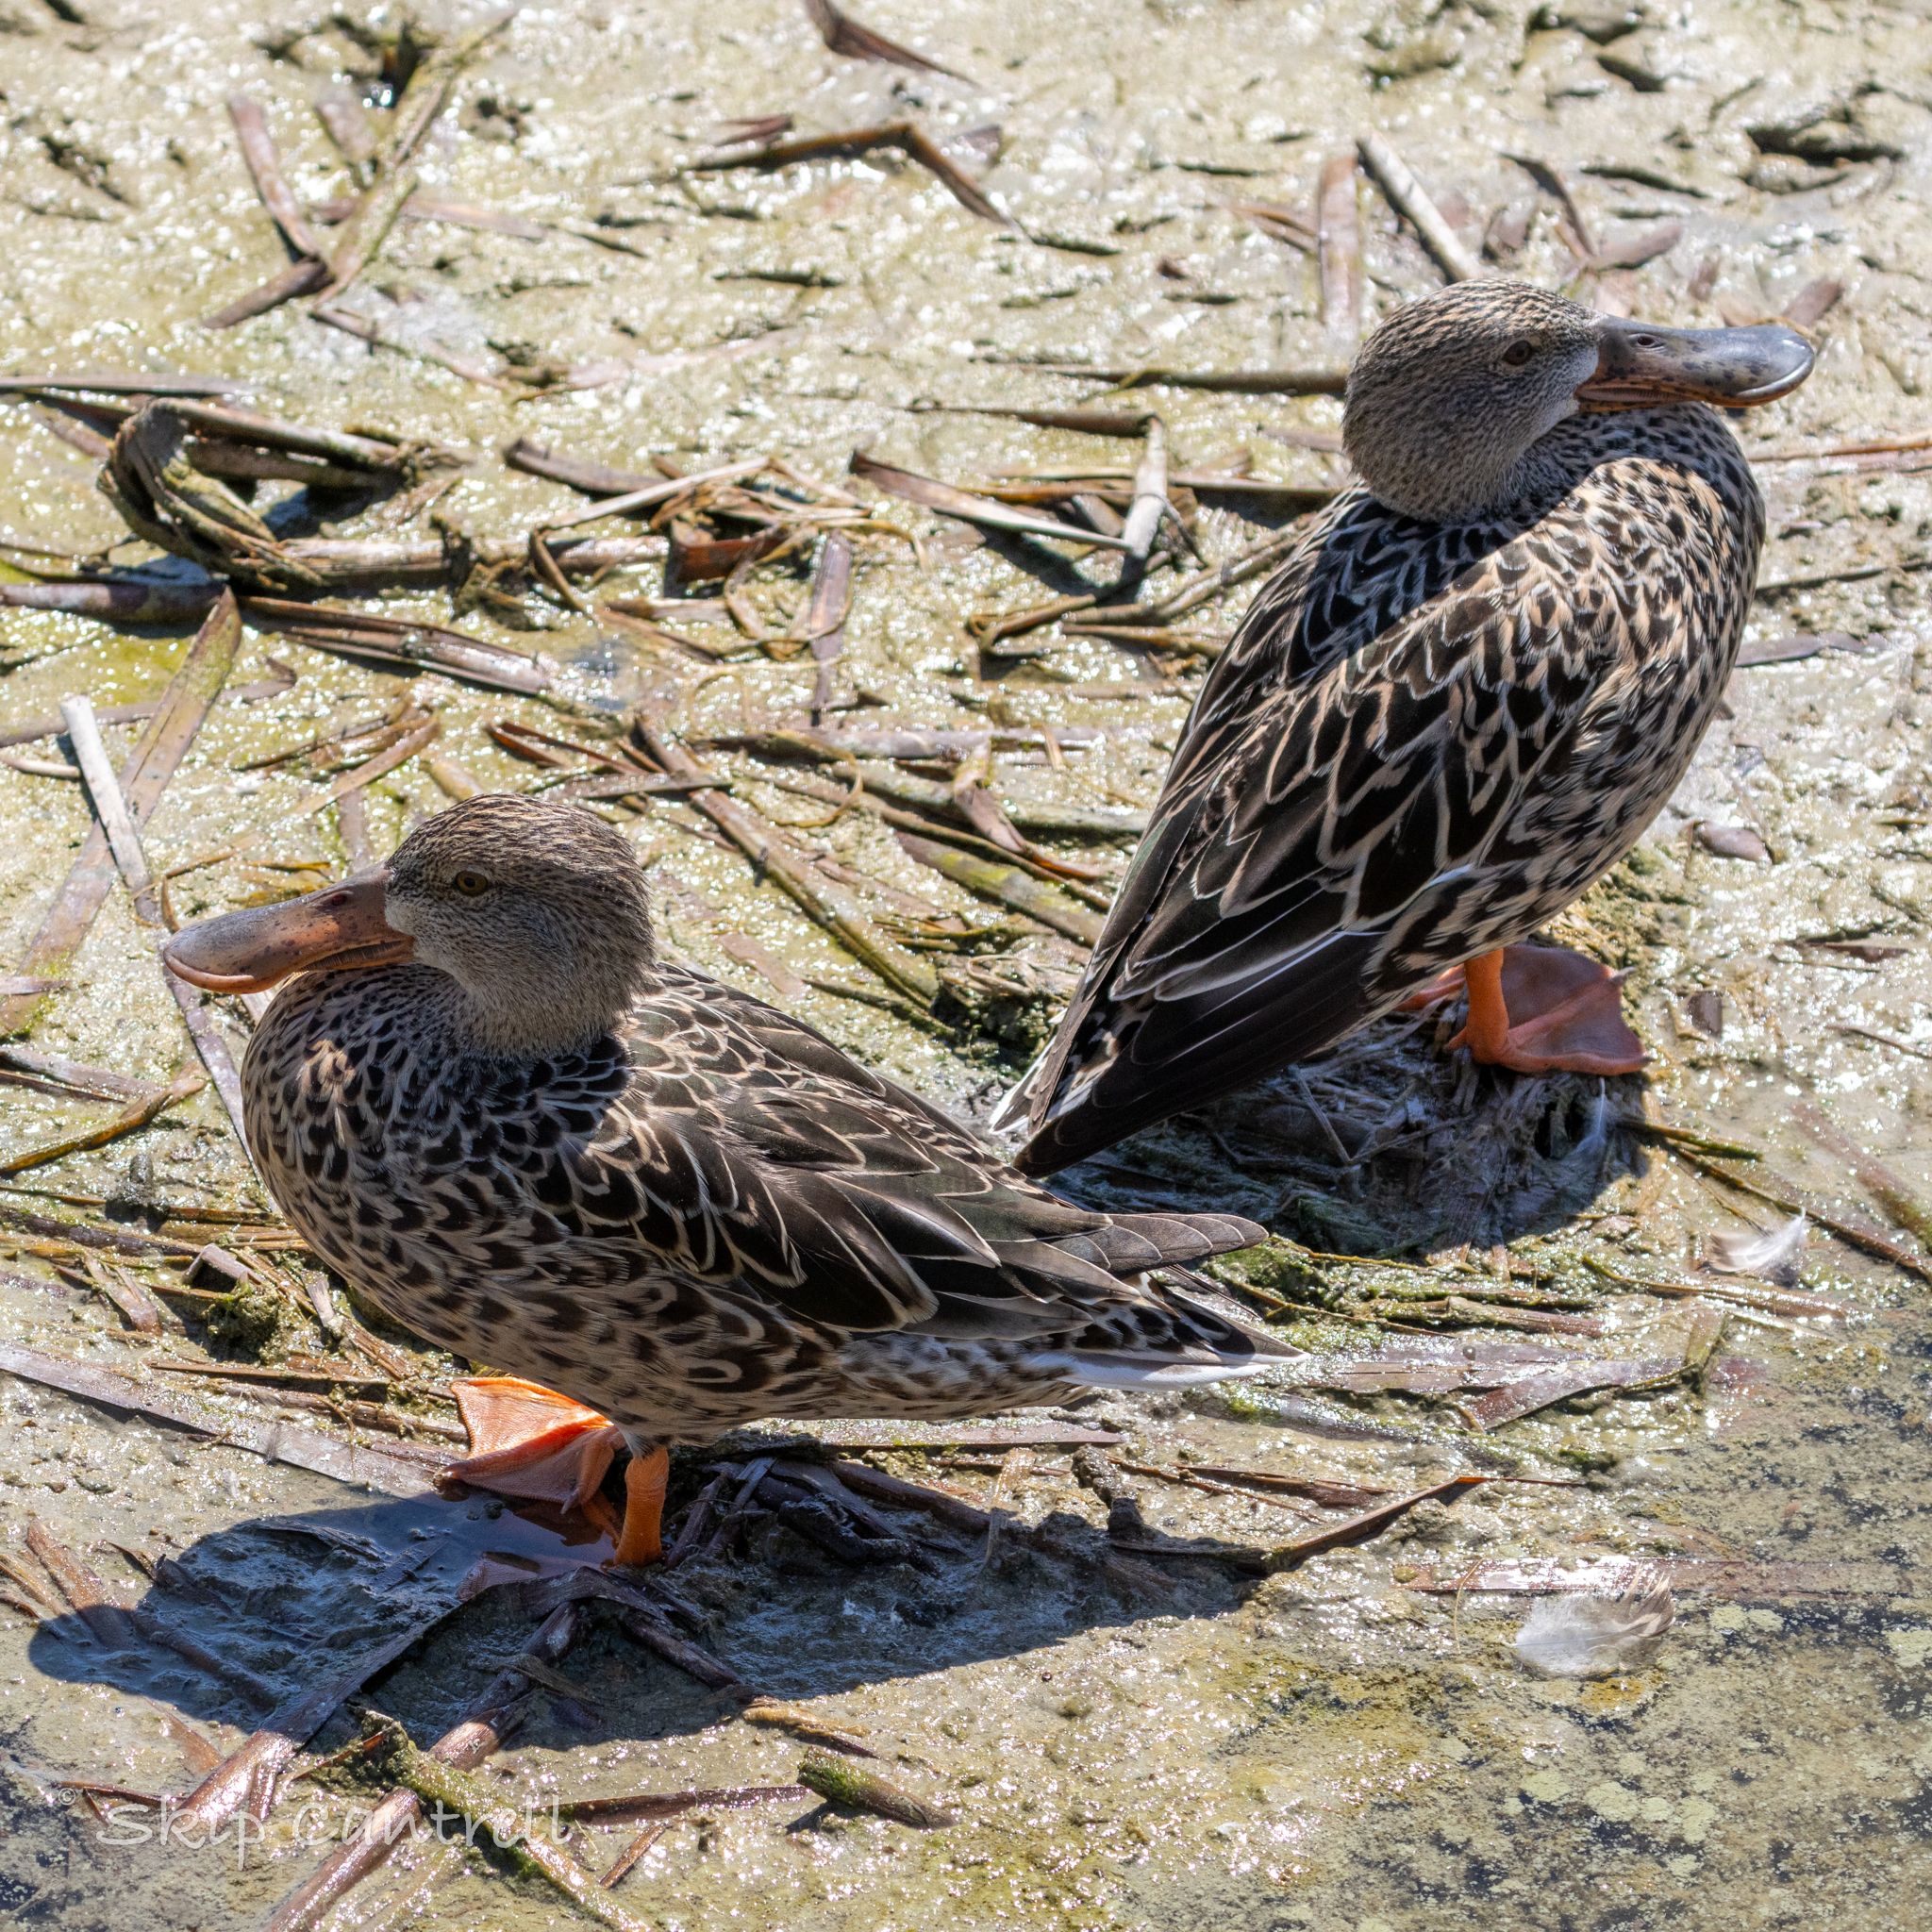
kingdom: Animalia
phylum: Chordata
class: Aves
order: Anseriformes
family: Anatidae
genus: Spatula
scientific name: Spatula clypeata
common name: Northern shoveler
